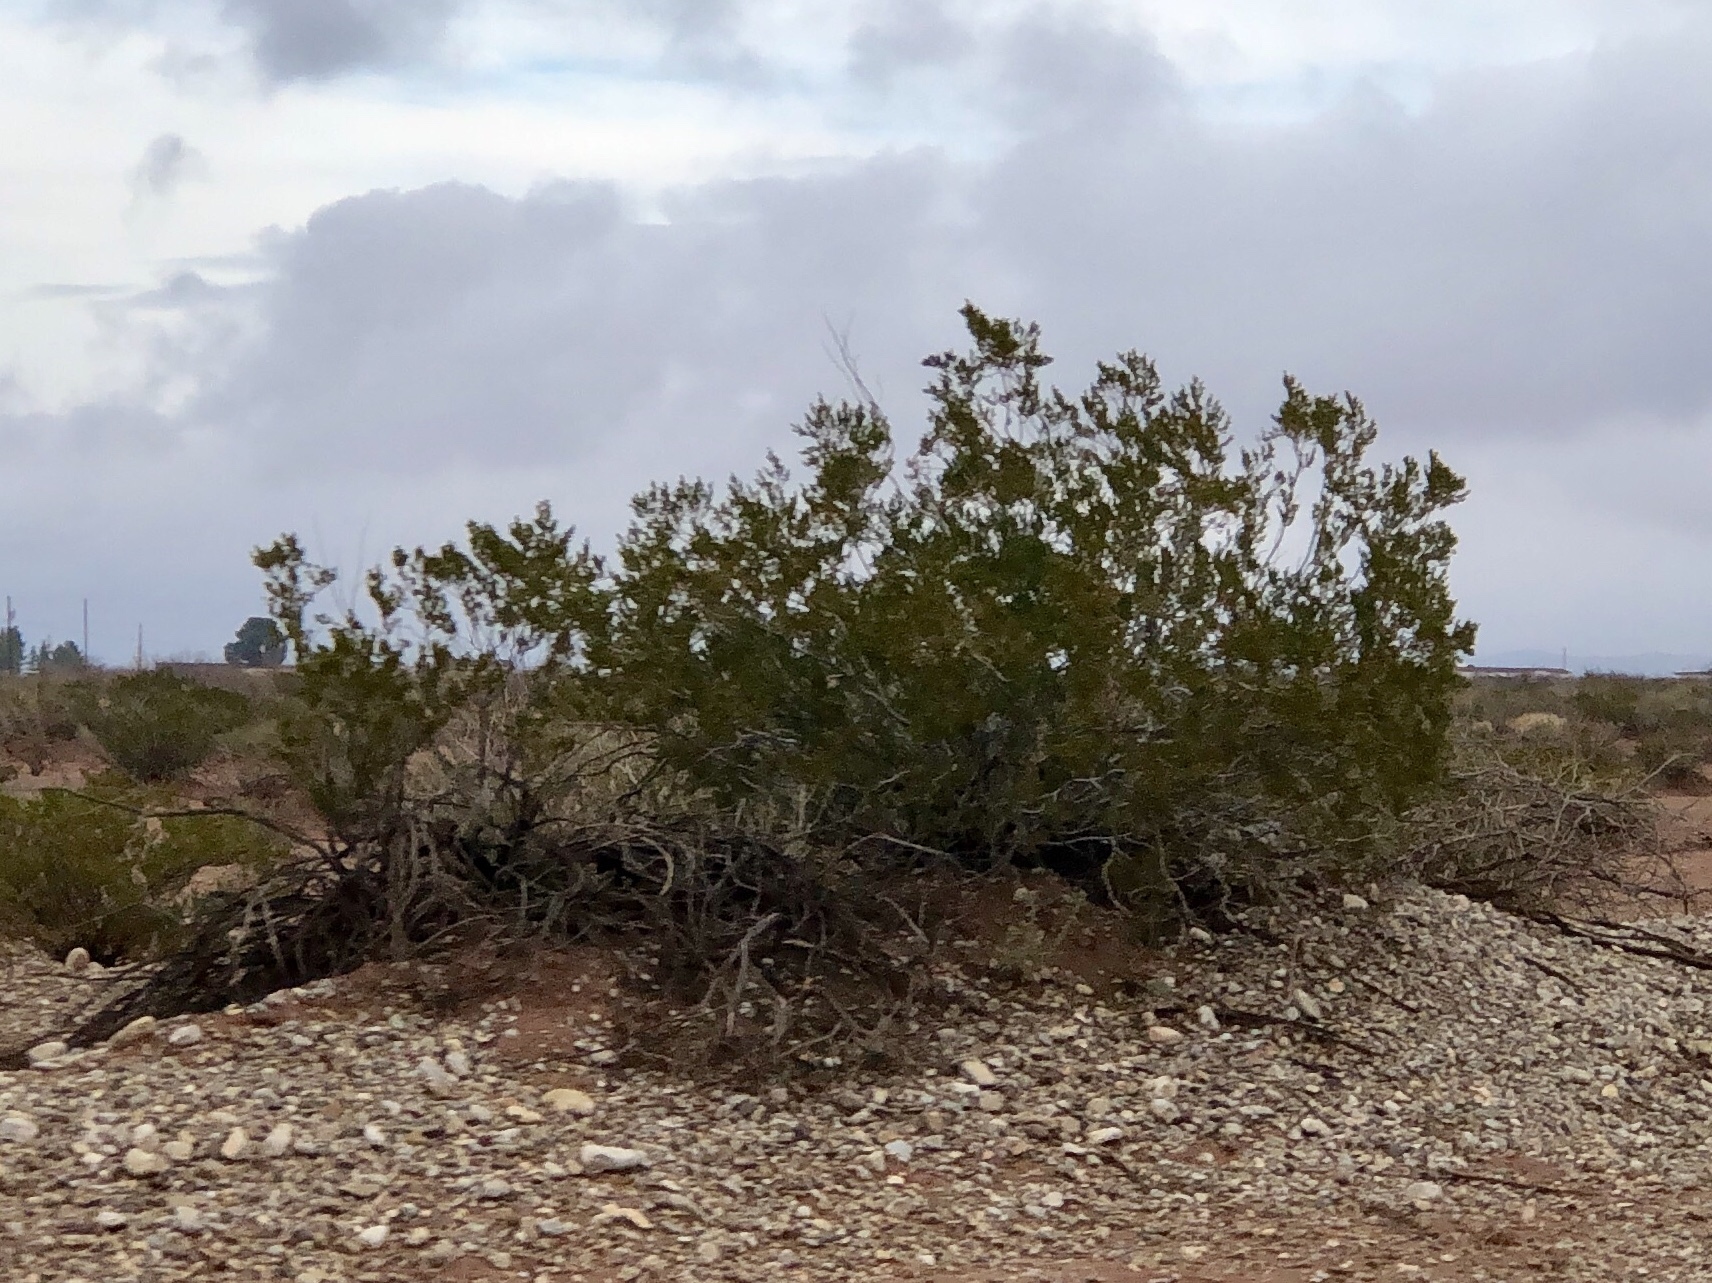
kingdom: Plantae
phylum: Tracheophyta
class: Magnoliopsida
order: Zygophyllales
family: Zygophyllaceae
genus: Larrea
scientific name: Larrea tridentata
